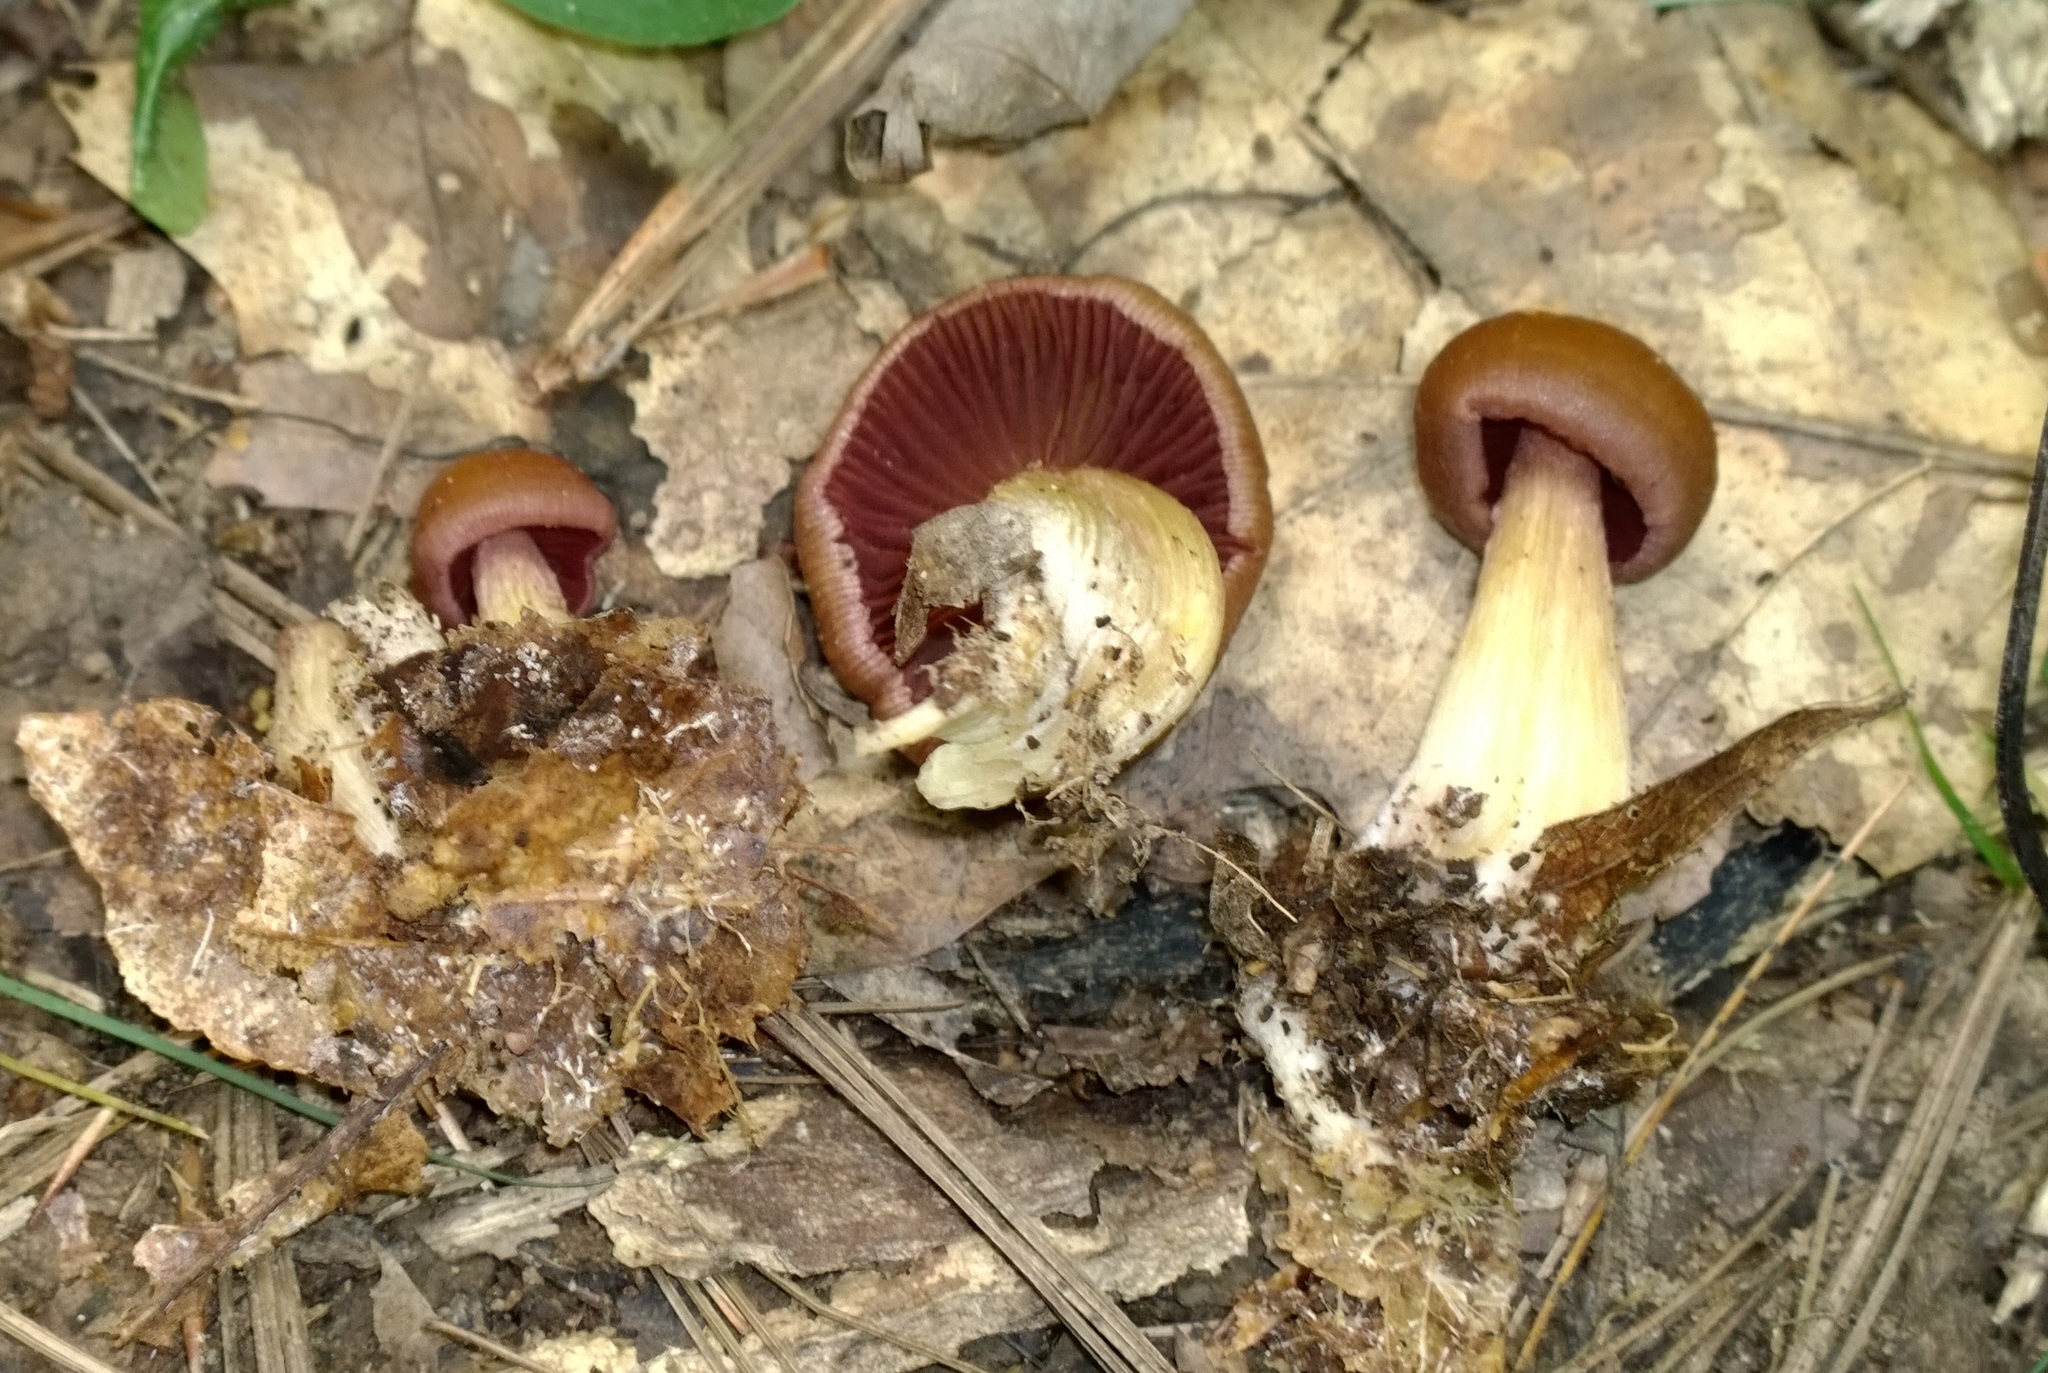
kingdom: Fungi
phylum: Basidiomycota
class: Agaricomycetes
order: Agaricales
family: Mycenaceae
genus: Mycena
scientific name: Mycena denticulata
